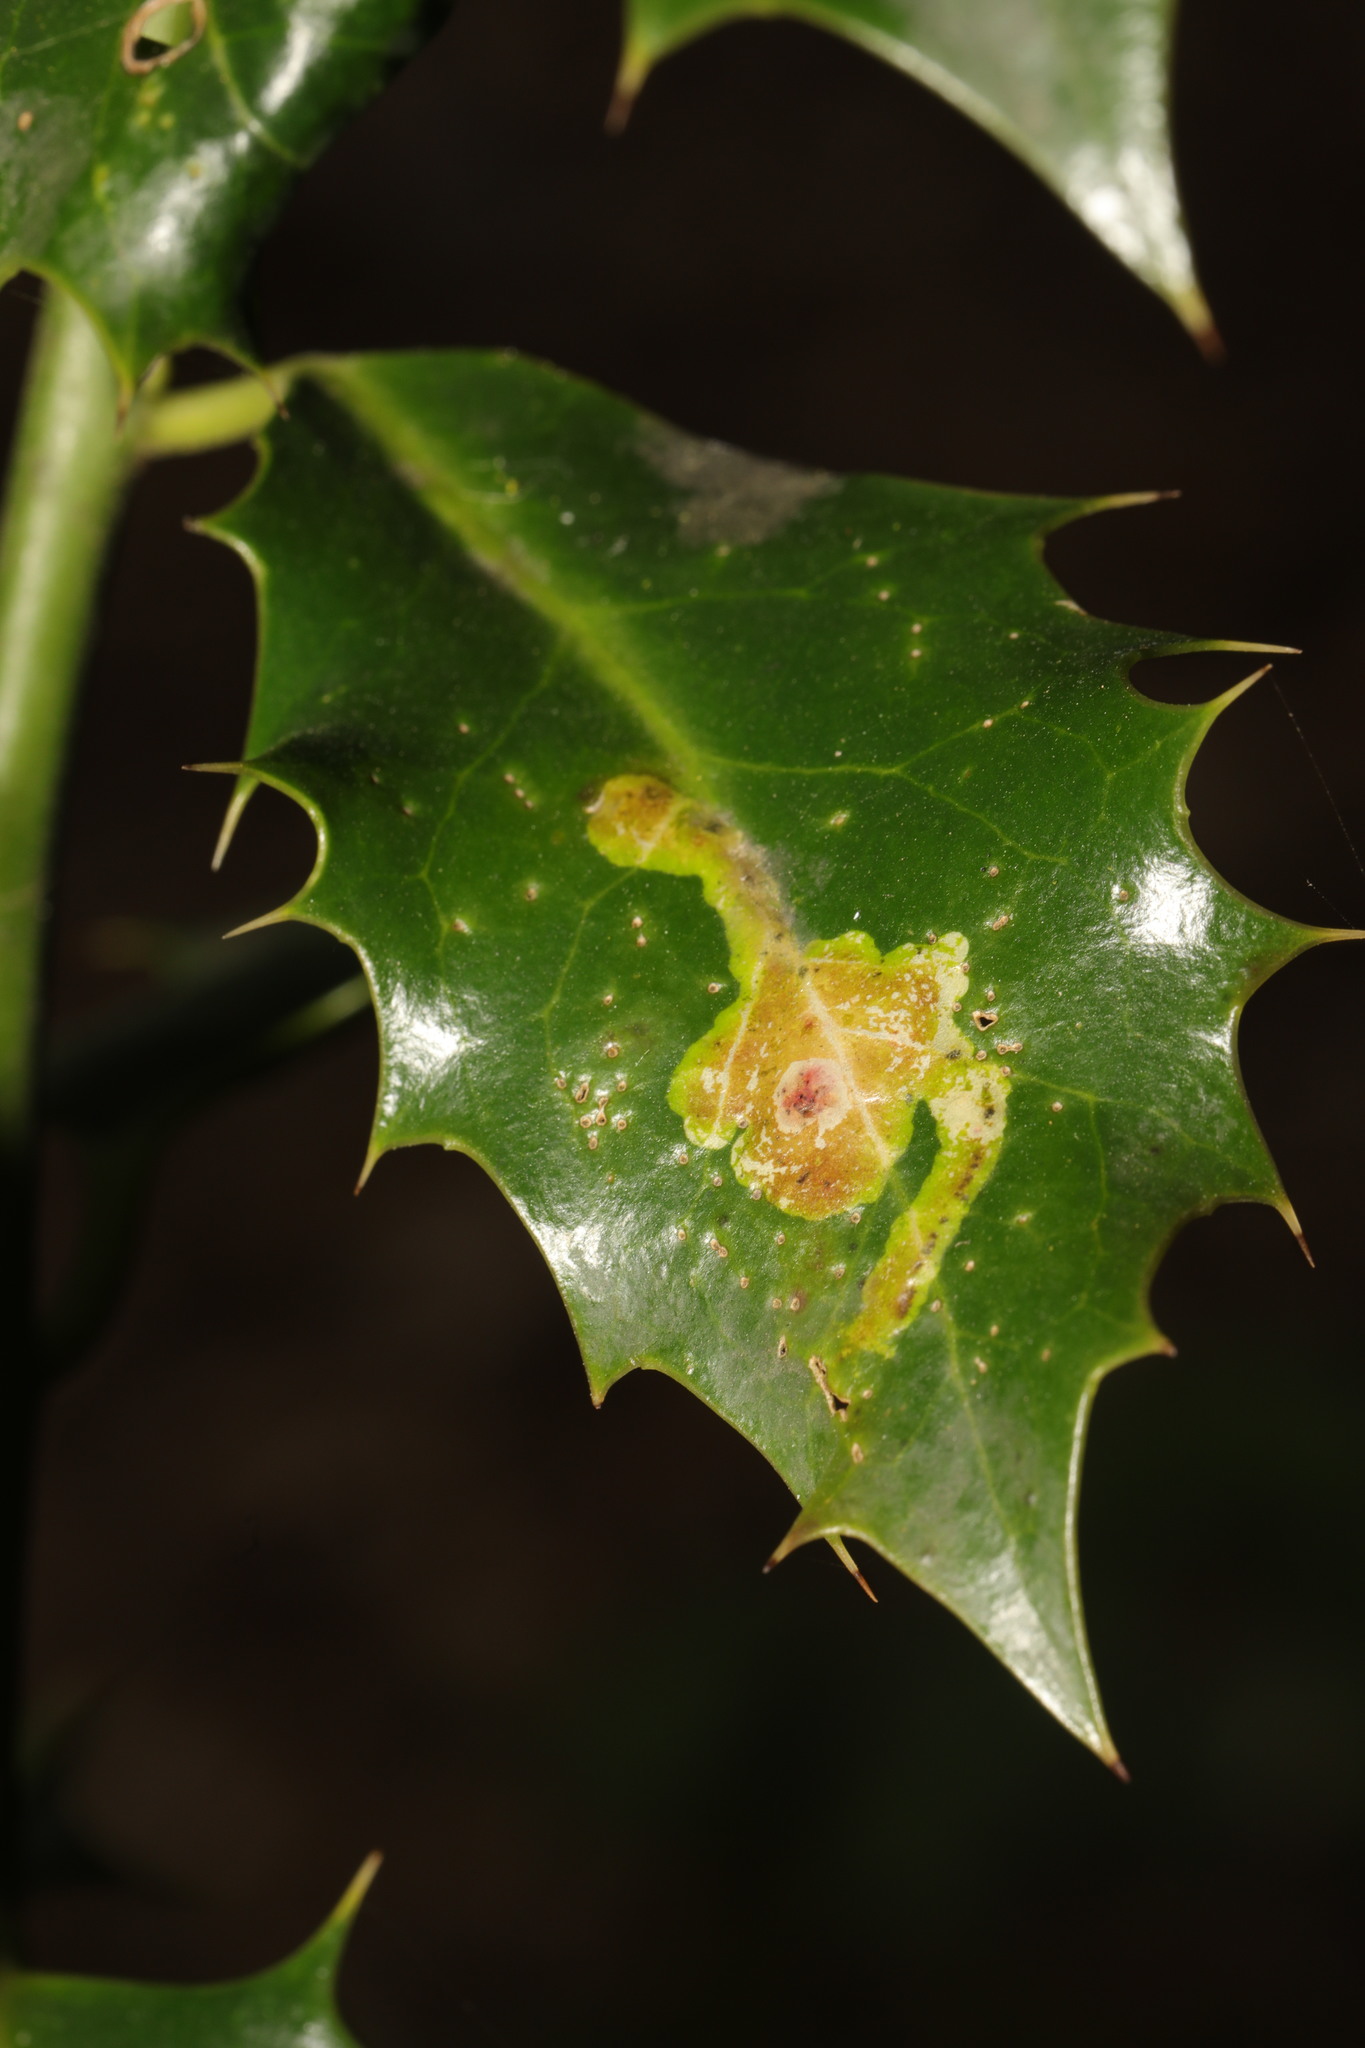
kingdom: Animalia
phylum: Arthropoda
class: Insecta
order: Diptera
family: Agromyzidae
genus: Phytomyza
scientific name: Phytomyza ilicis
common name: Holly leafminer
